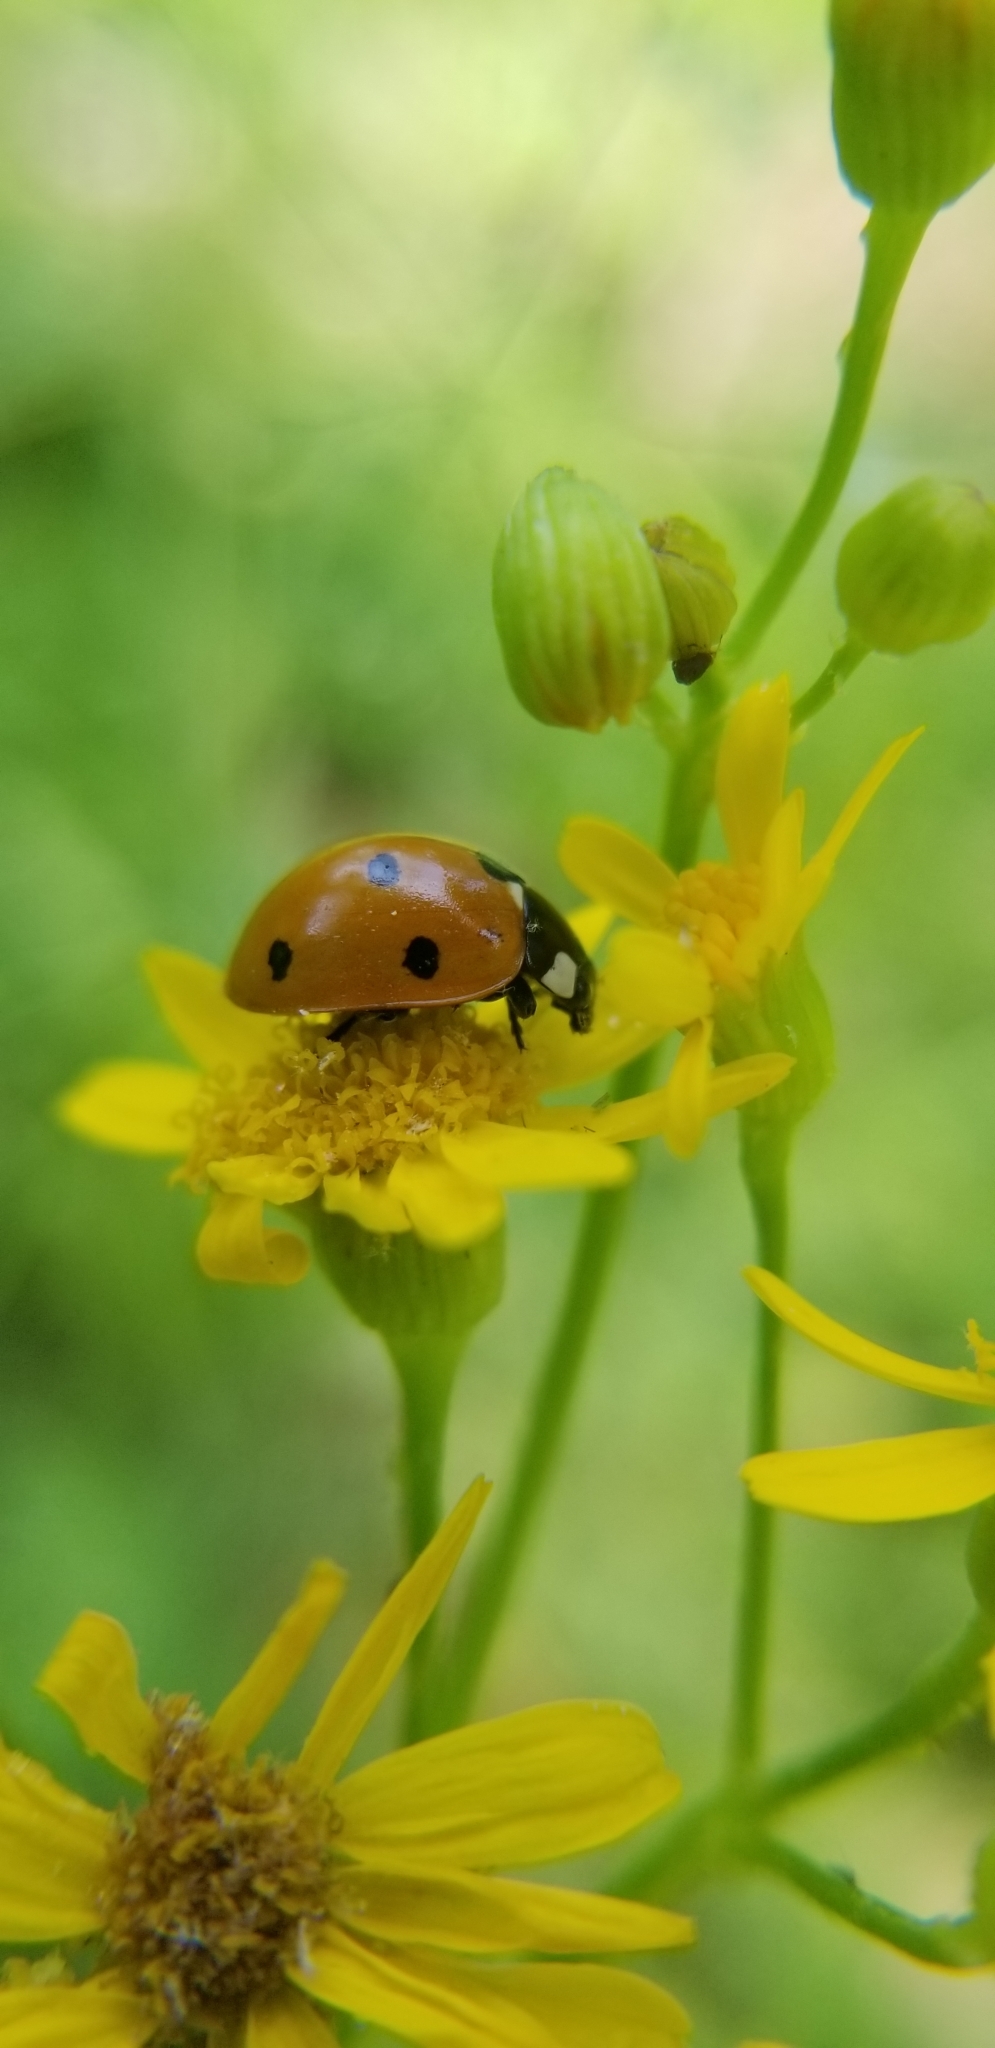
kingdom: Animalia
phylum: Arthropoda
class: Insecta
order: Coleoptera
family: Coccinellidae
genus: Coccinella
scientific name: Coccinella septempunctata
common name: Sevenspotted lady beetle
